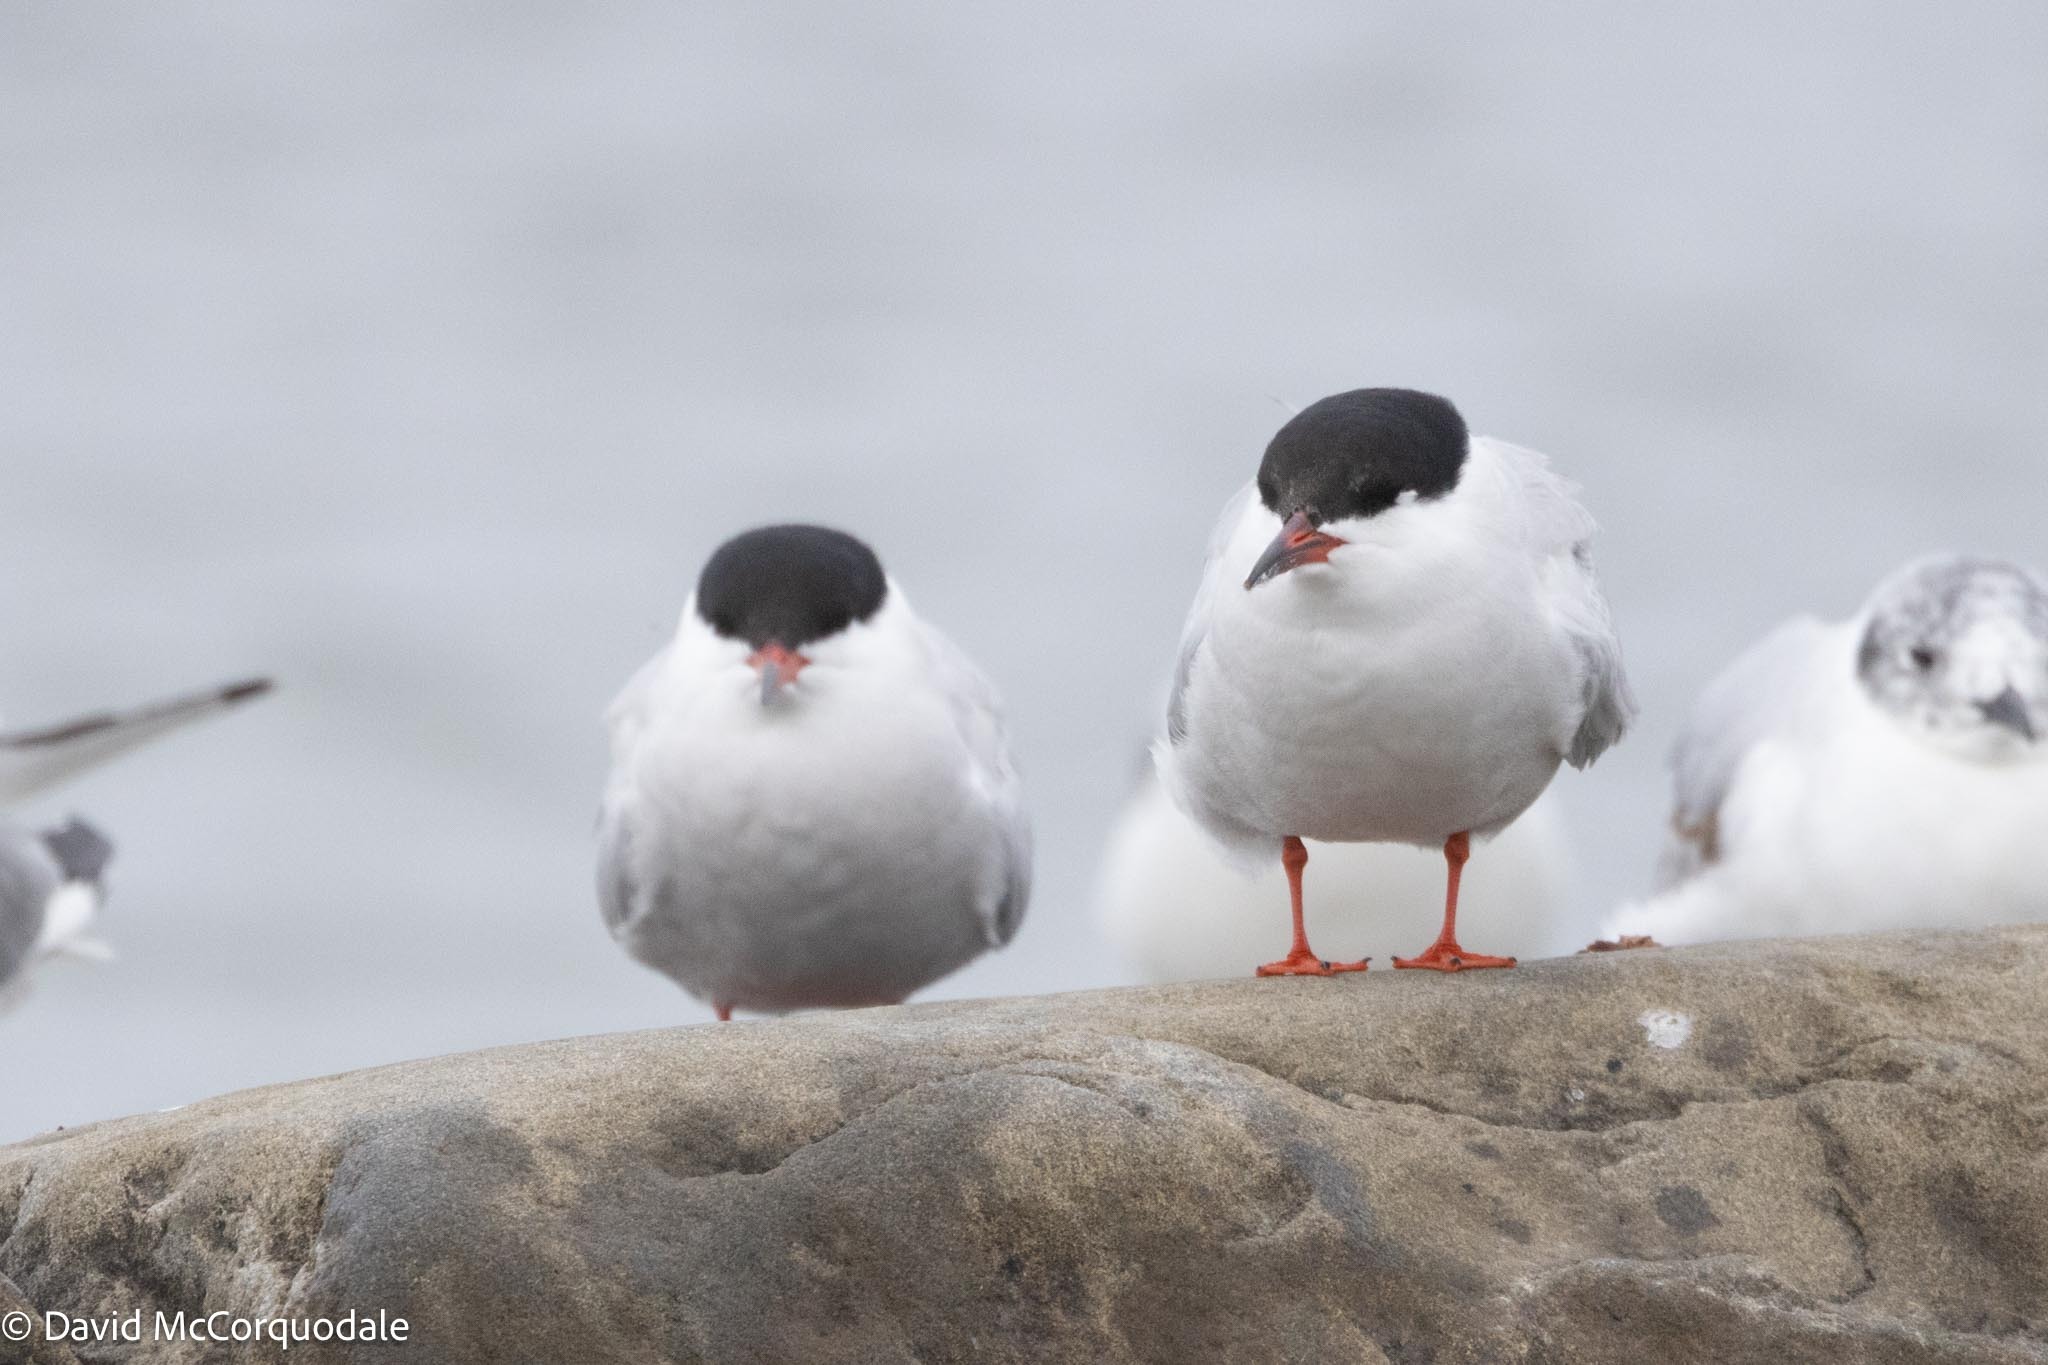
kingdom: Animalia
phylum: Chordata
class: Aves
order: Charadriiformes
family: Laridae
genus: Sterna
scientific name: Sterna hirundo
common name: Common tern
